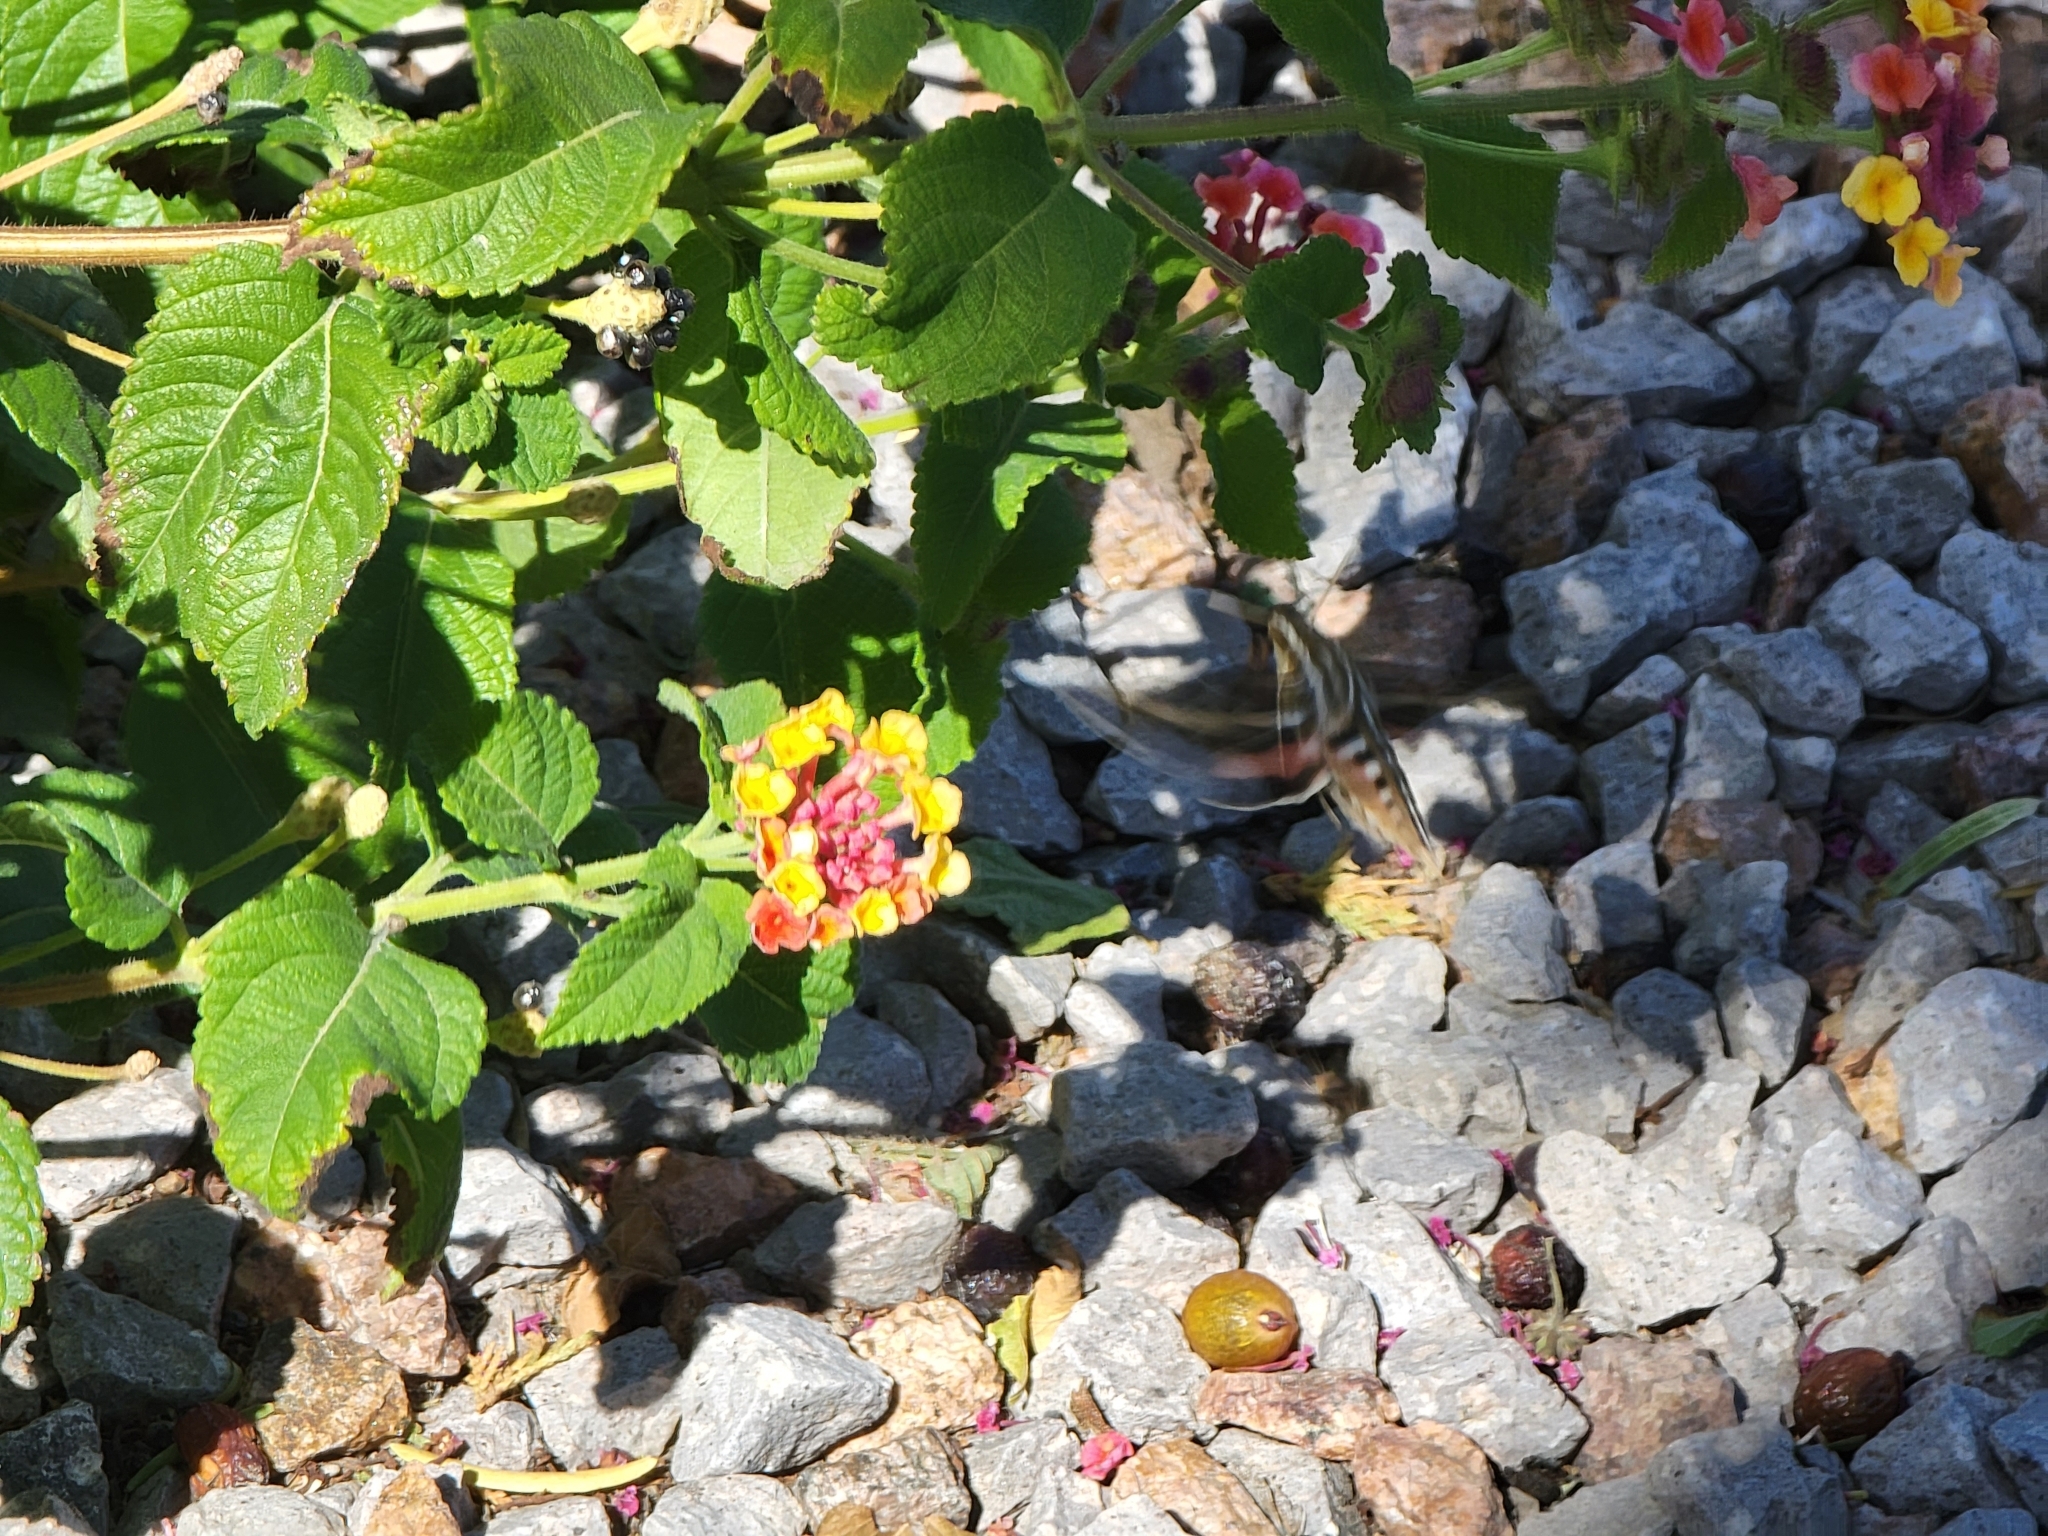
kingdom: Animalia
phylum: Arthropoda
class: Insecta
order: Lepidoptera
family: Sphingidae
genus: Hyles
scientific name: Hyles lineata
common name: White-lined sphinx
